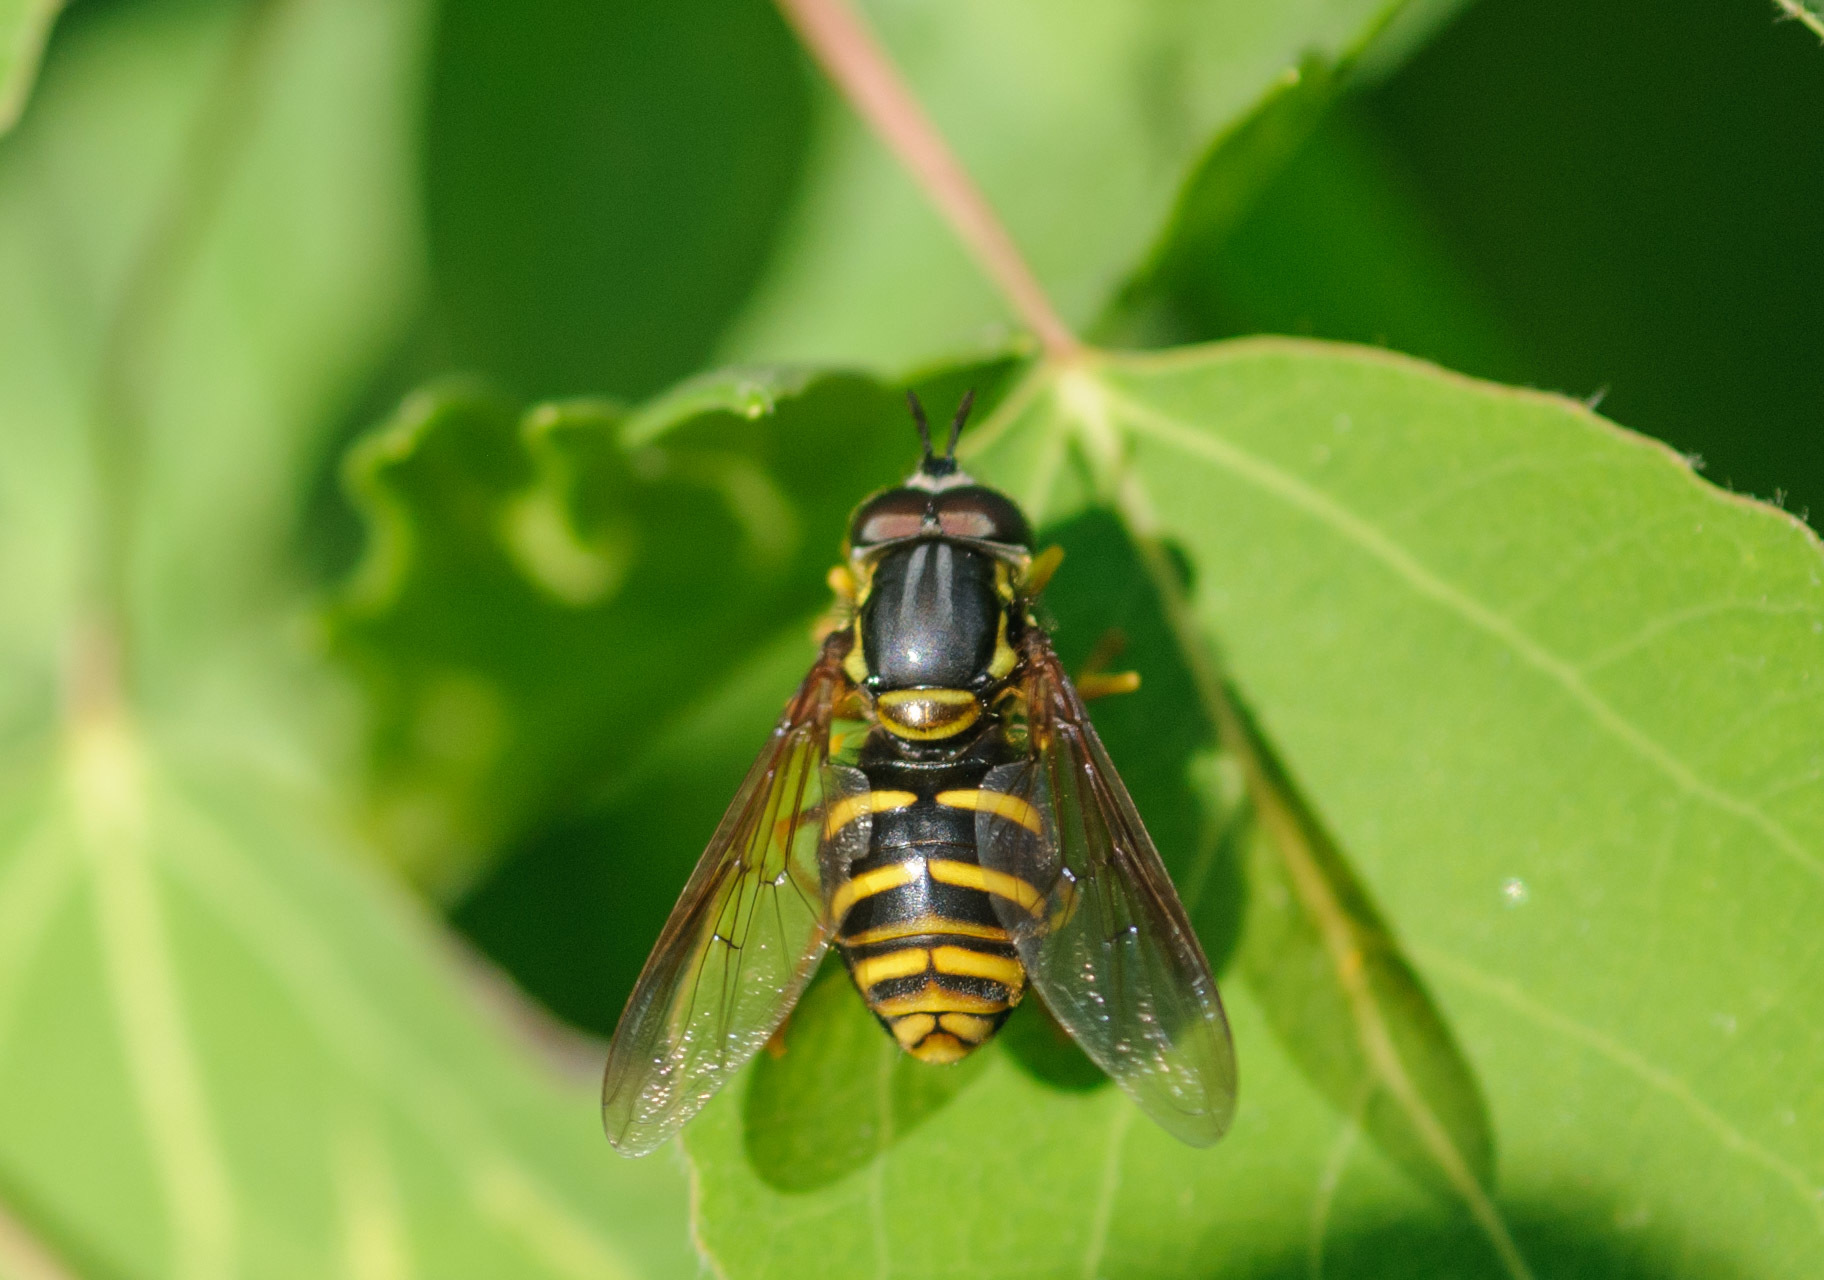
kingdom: Animalia
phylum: Arthropoda
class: Insecta
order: Diptera
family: Syrphidae
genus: Chrysotoxum
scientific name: Chrysotoxum
